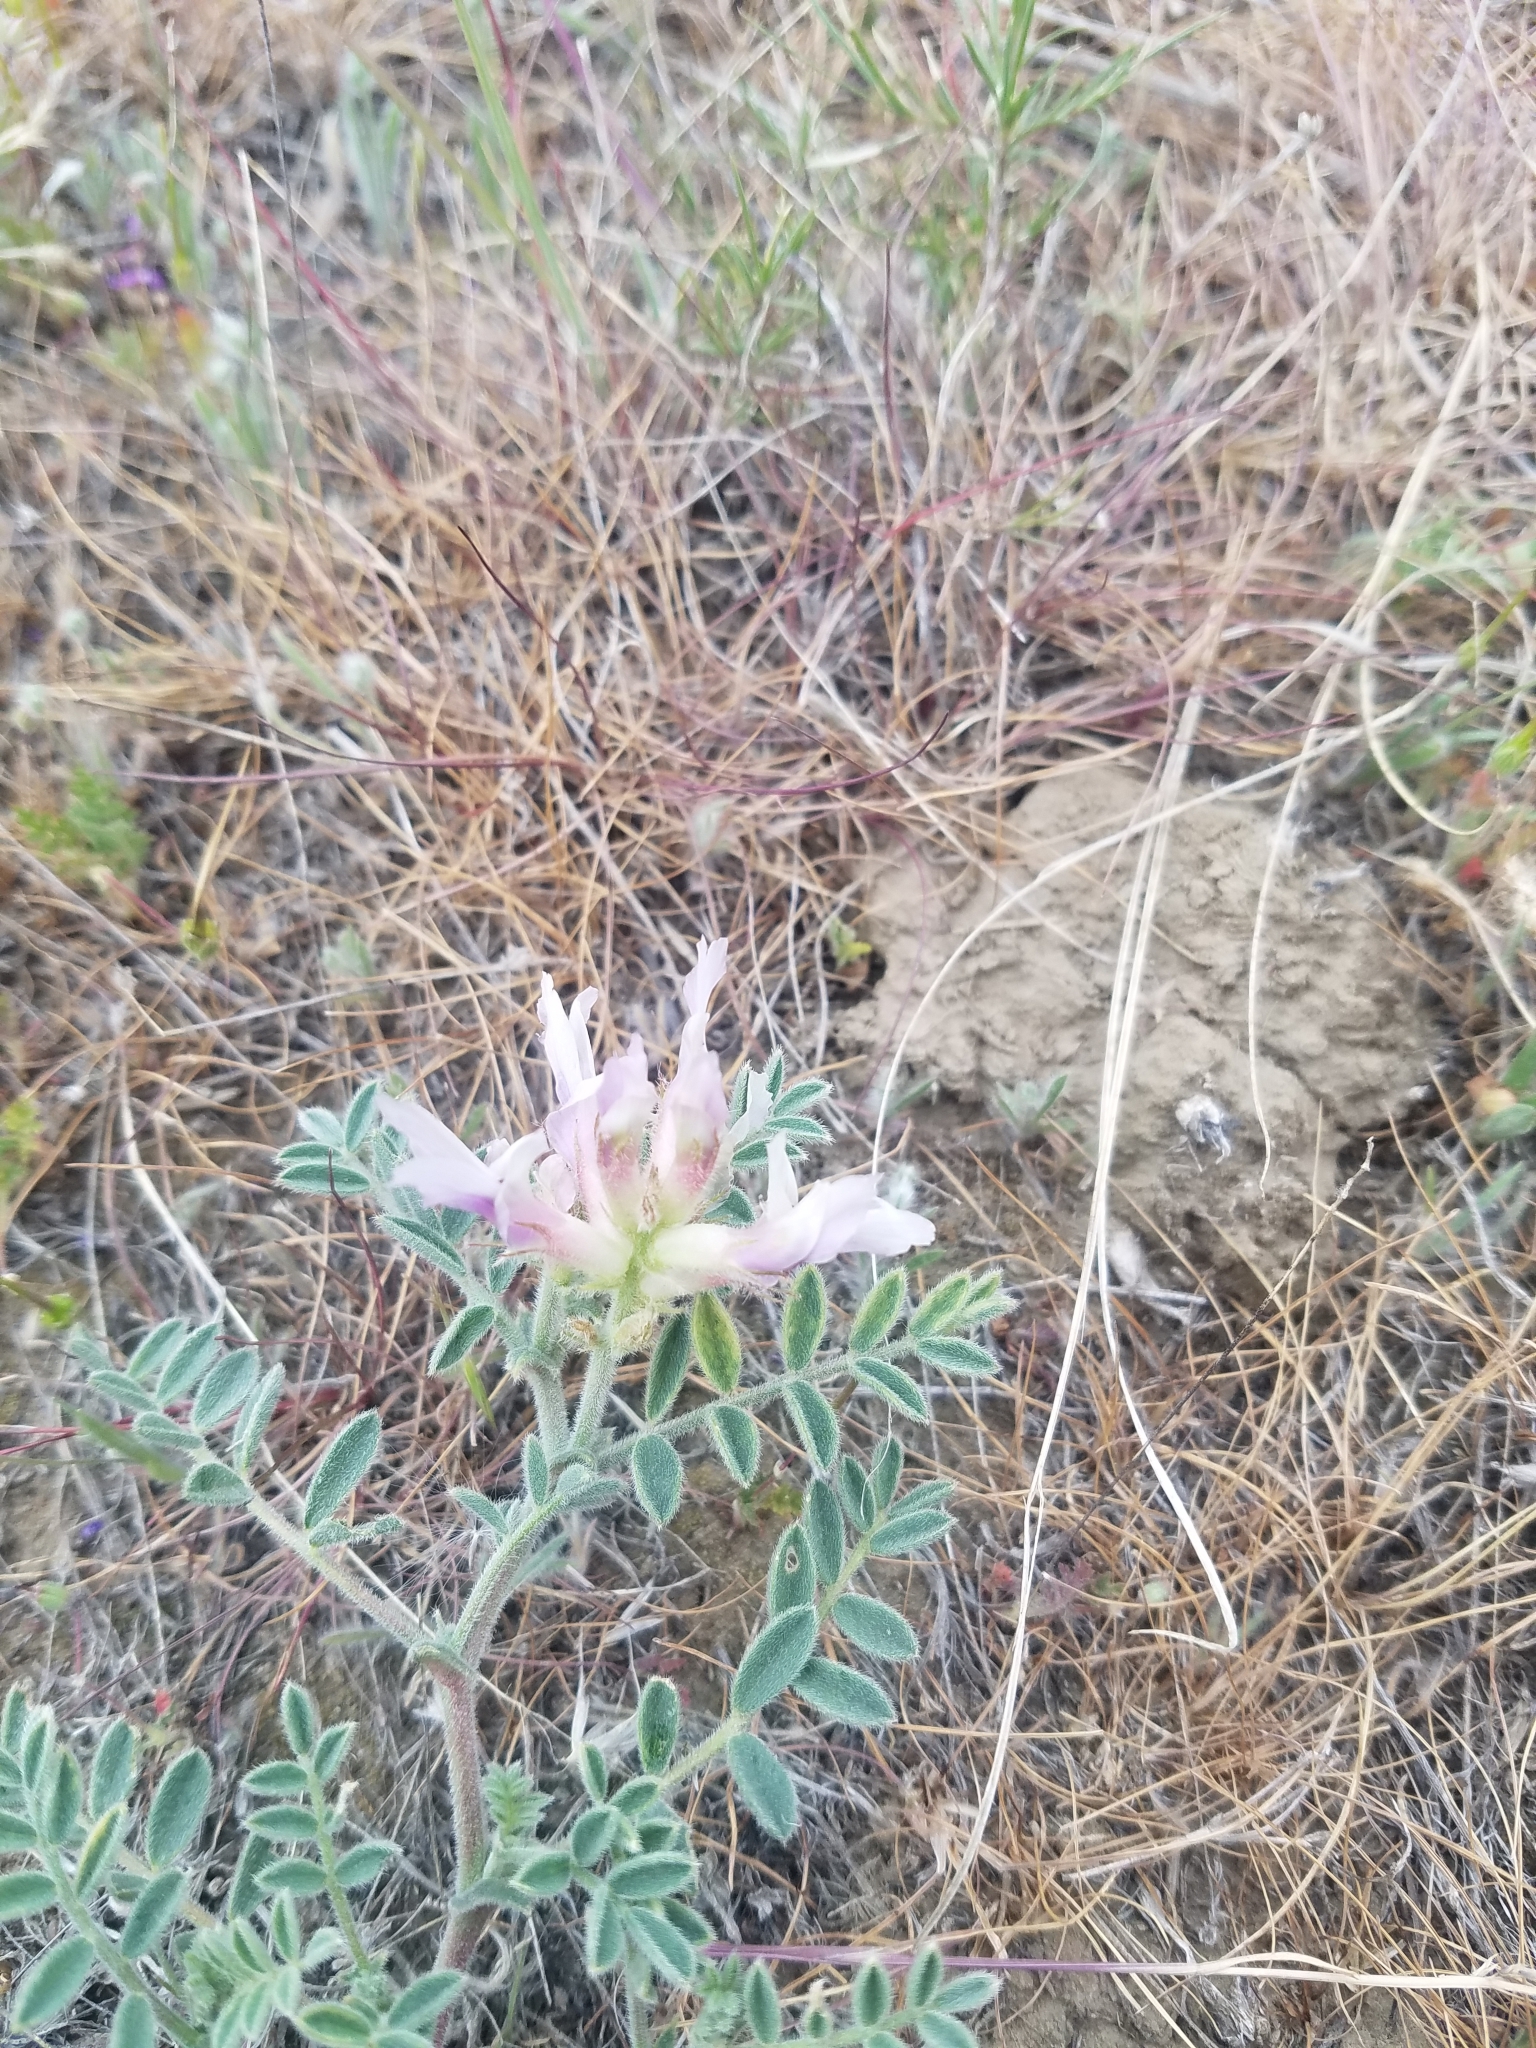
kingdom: Plantae
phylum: Tracheophyta
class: Magnoliopsida
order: Fabales
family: Fabaceae
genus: Astragalus
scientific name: Astragalus succumbens
